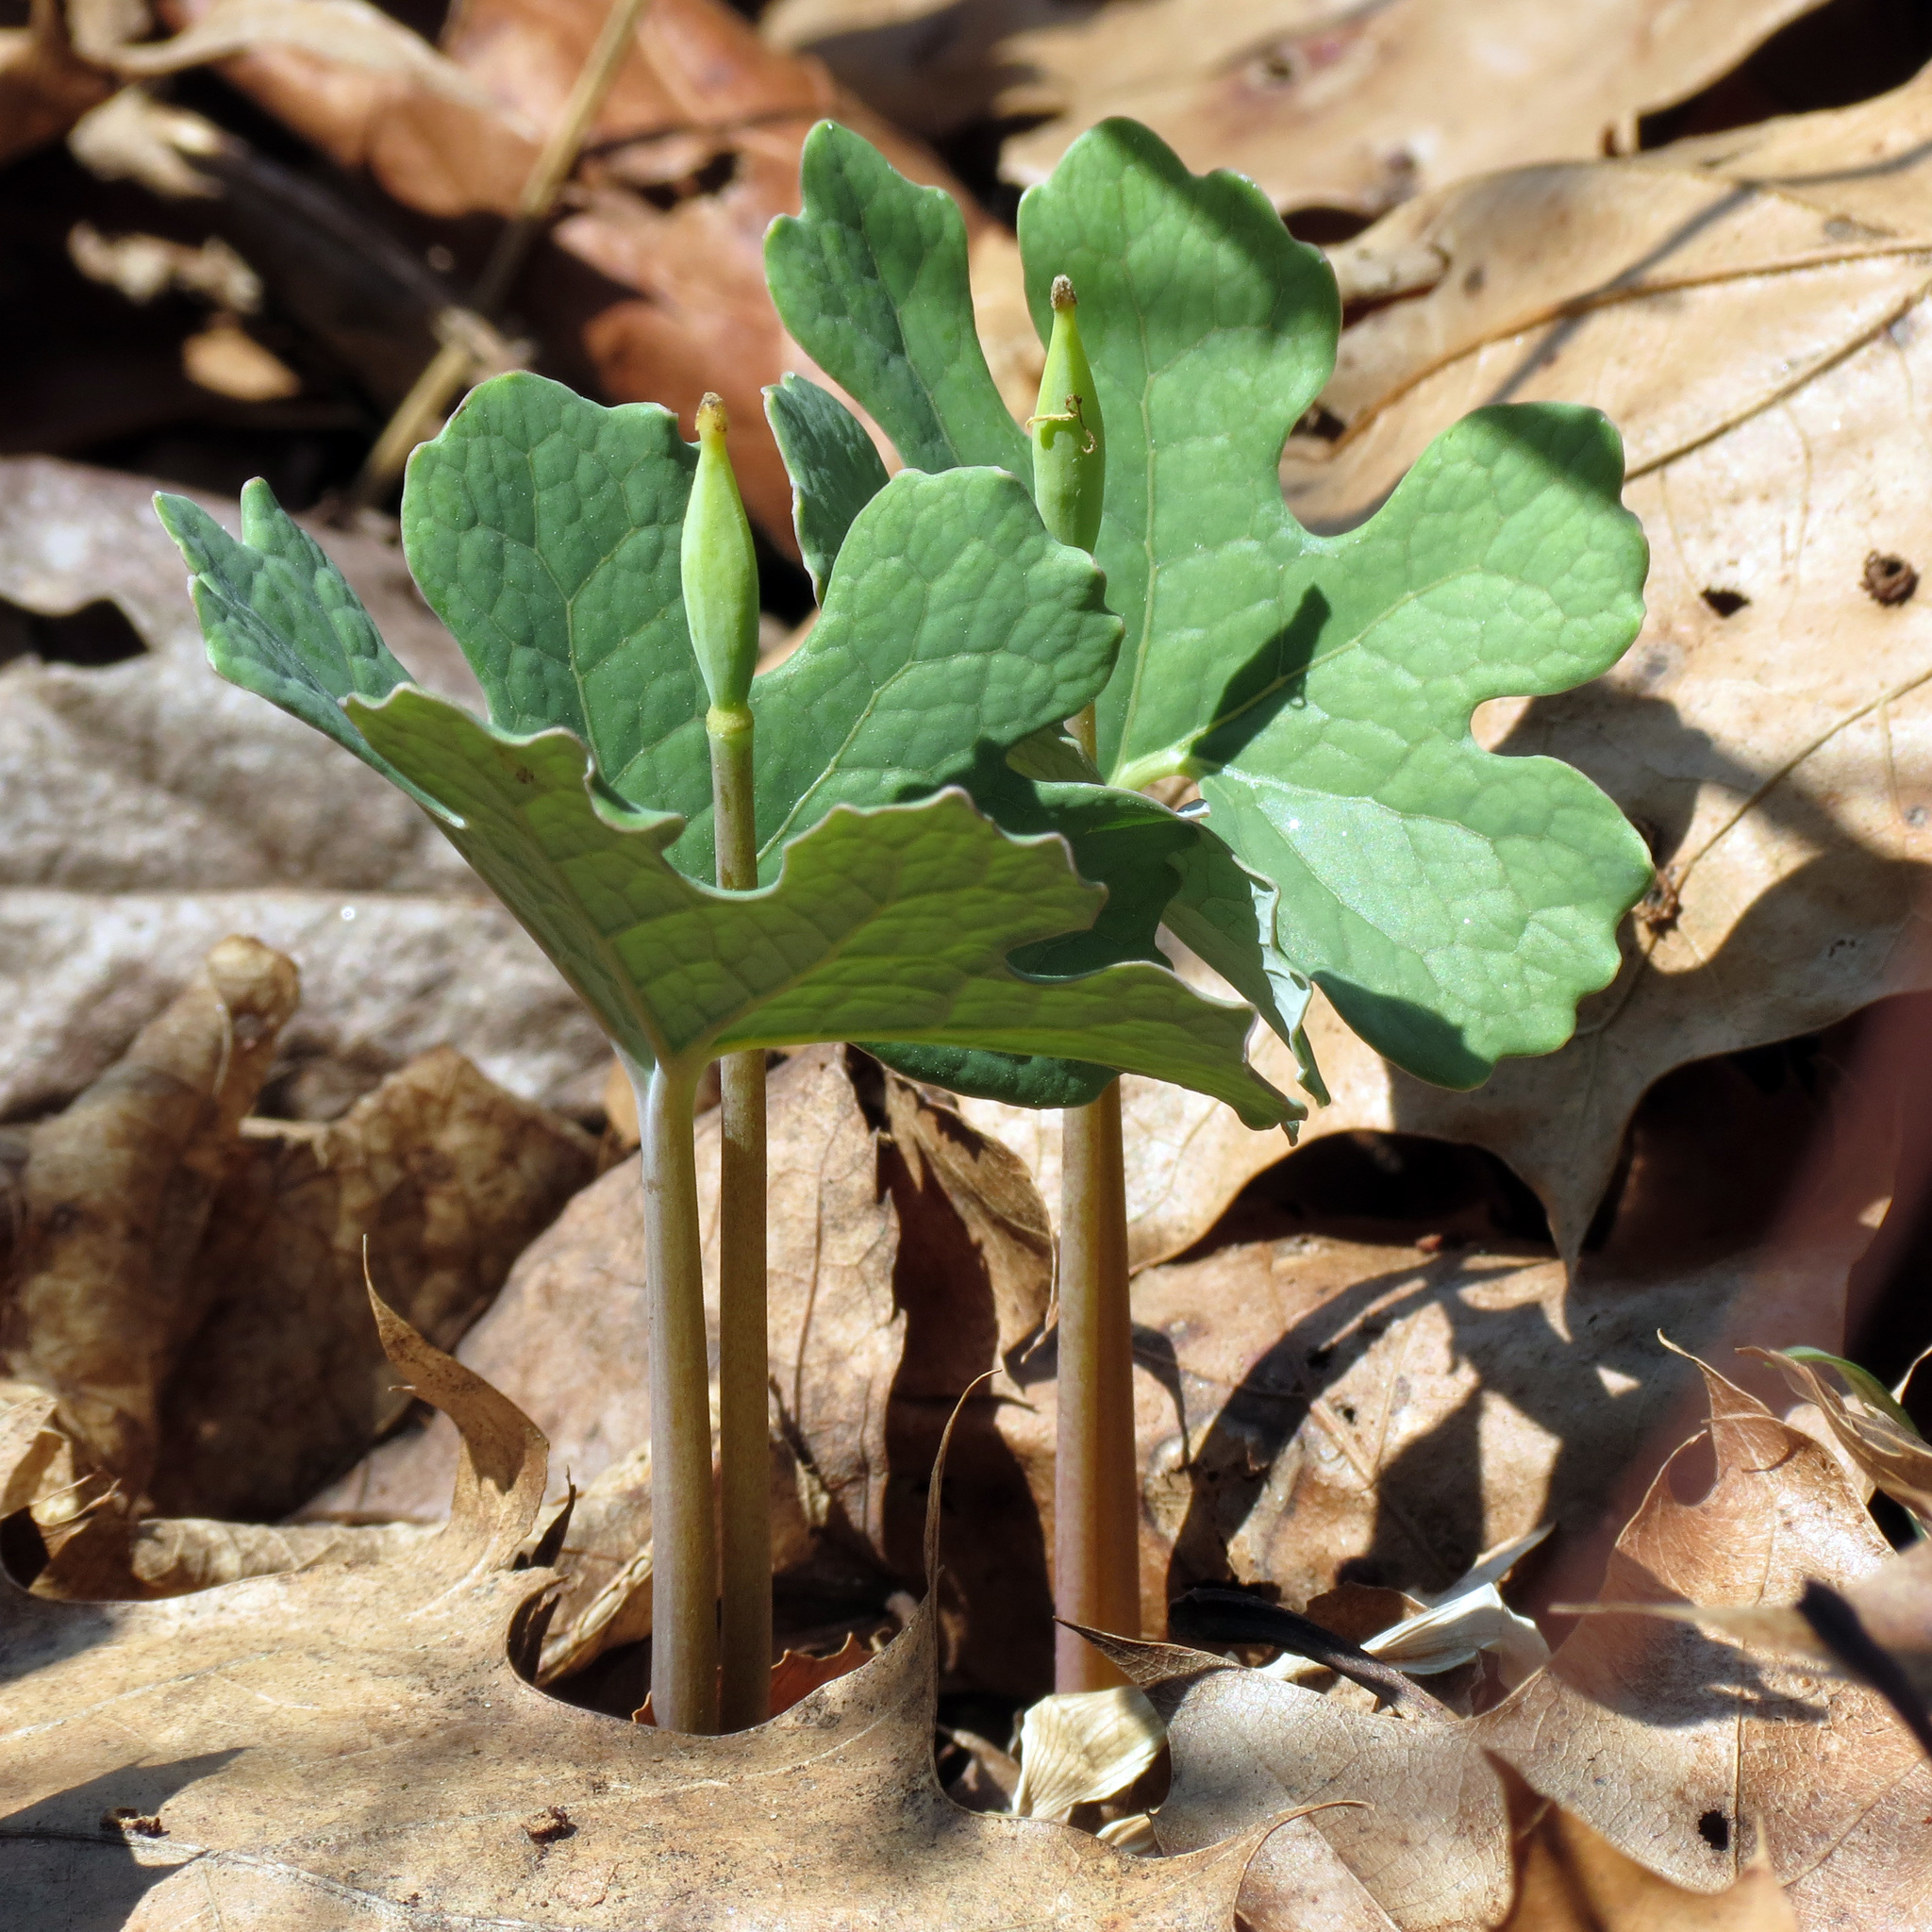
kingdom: Plantae
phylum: Tracheophyta
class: Magnoliopsida
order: Ranunculales
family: Papaveraceae
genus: Sanguinaria
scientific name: Sanguinaria canadensis
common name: Bloodroot
